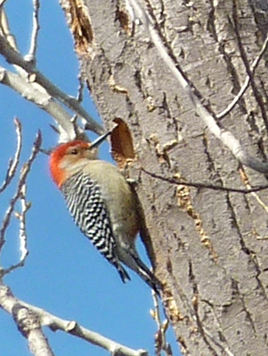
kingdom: Animalia
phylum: Chordata
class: Aves
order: Piciformes
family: Picidae
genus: Melanerpes
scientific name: Melanerpes carolinus
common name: Red-bellied woodpecker
